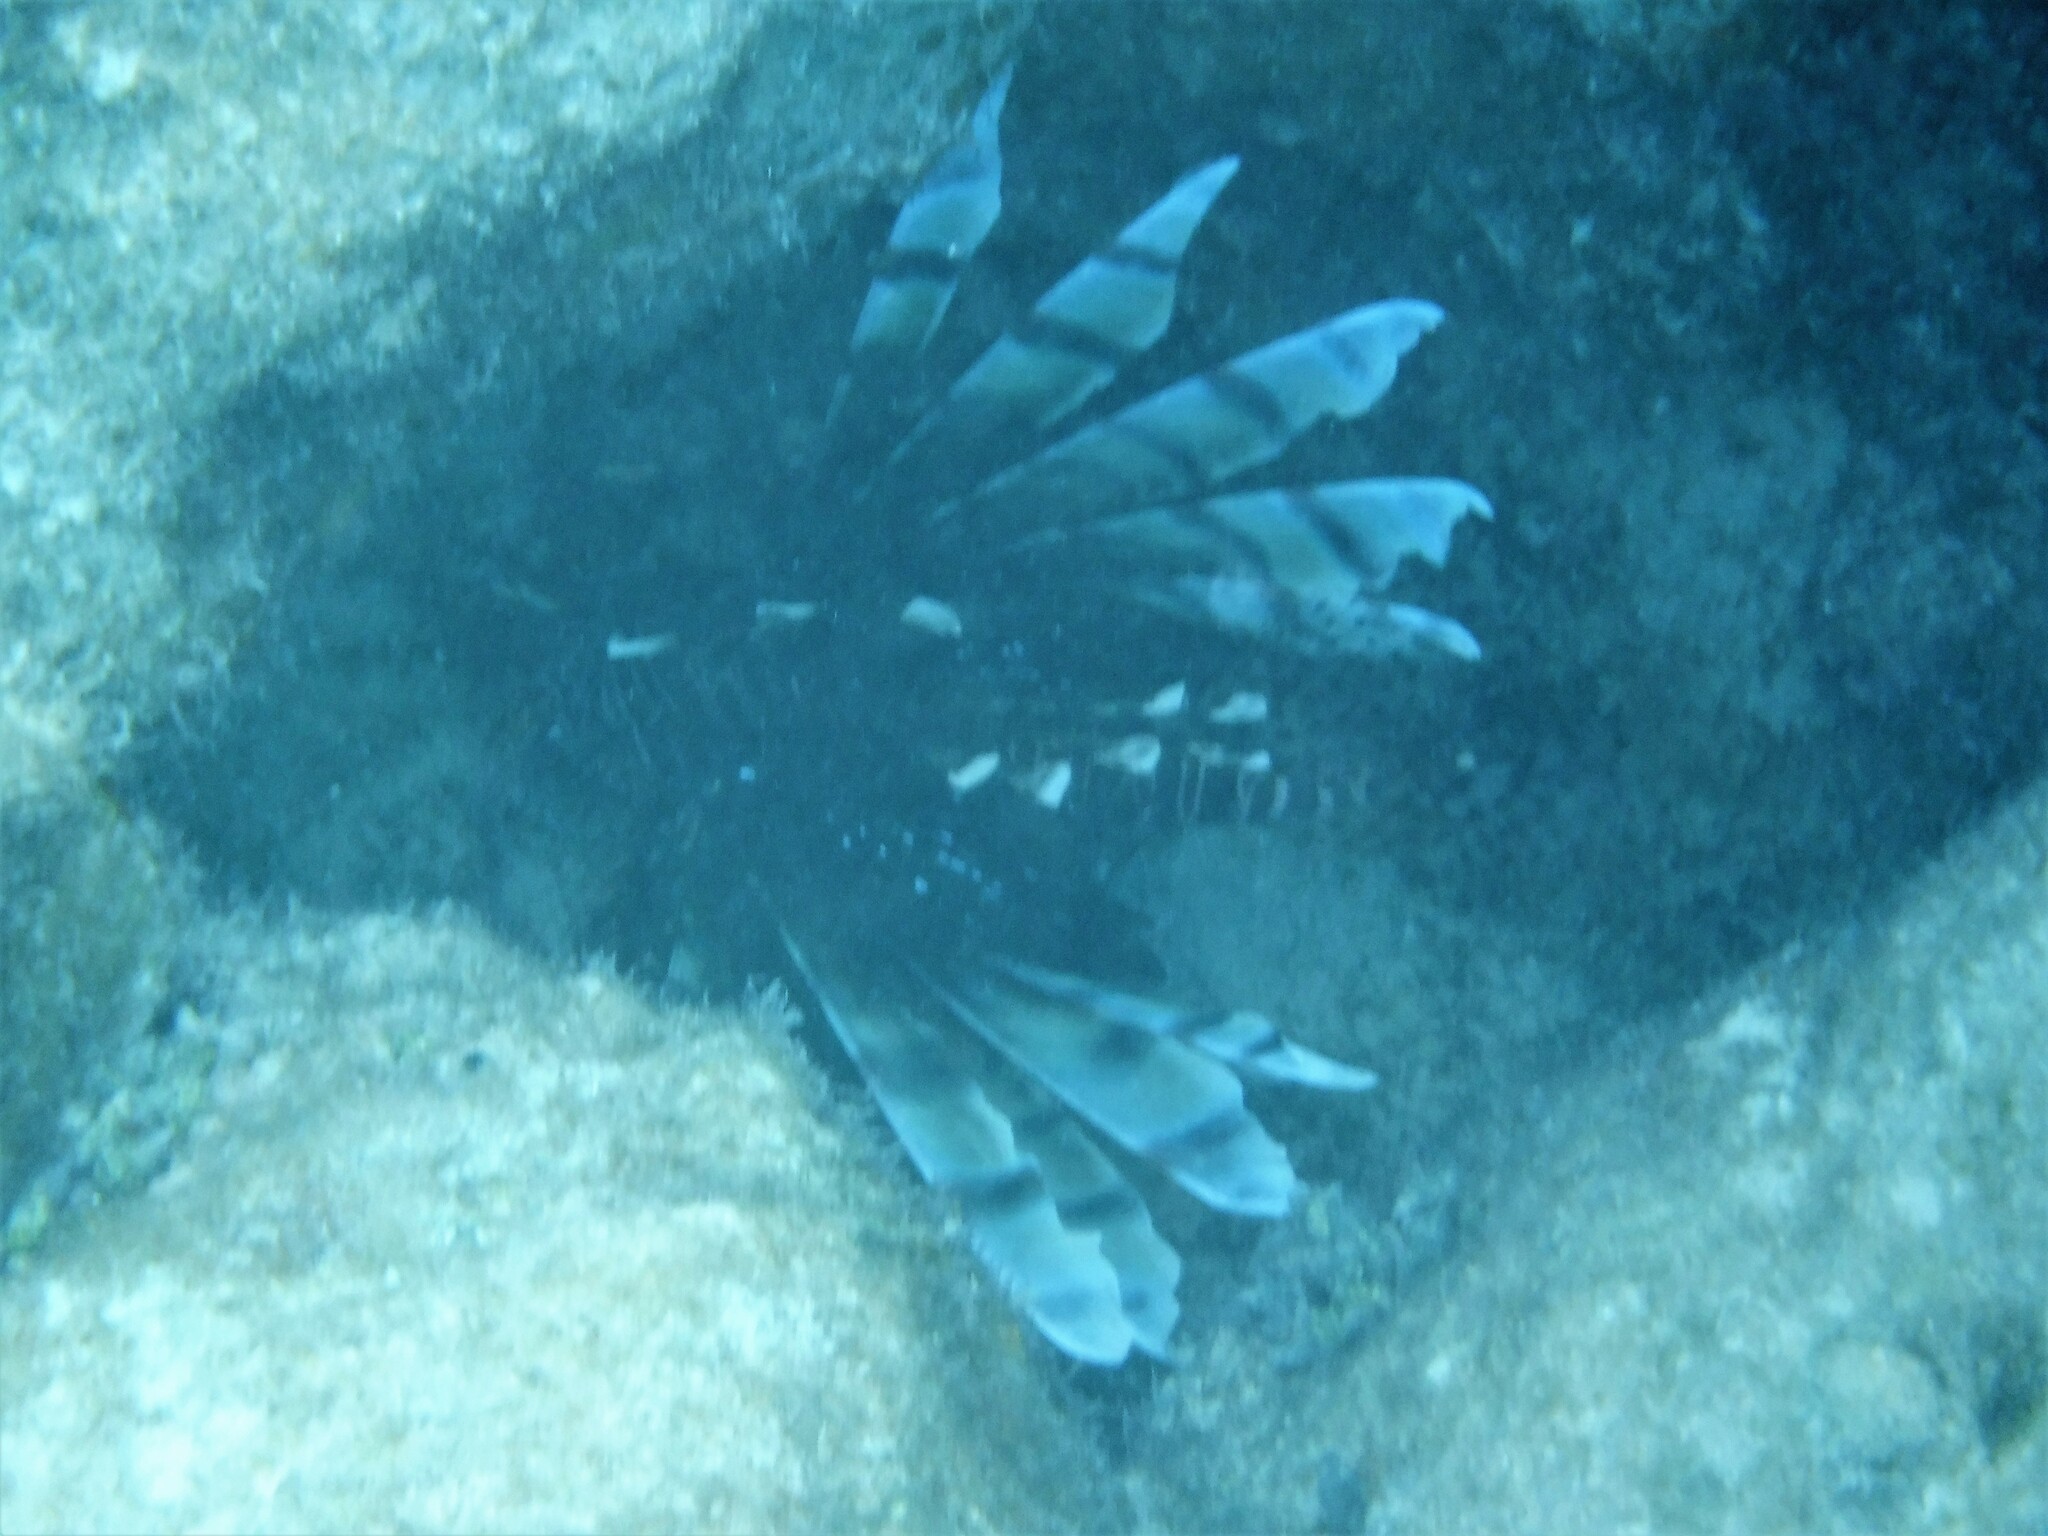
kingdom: Animalia
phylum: Chordata
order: Scorpaeniformes
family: Scorpaenidae
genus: Pterois
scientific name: Pterois volitans
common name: Lionfish
